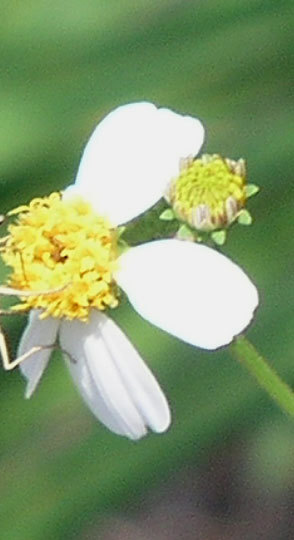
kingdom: Plantae
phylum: Tracheophyta
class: Magnoliopsida
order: Asterales
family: Asteraceae
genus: Bidens
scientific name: Bidens alba
